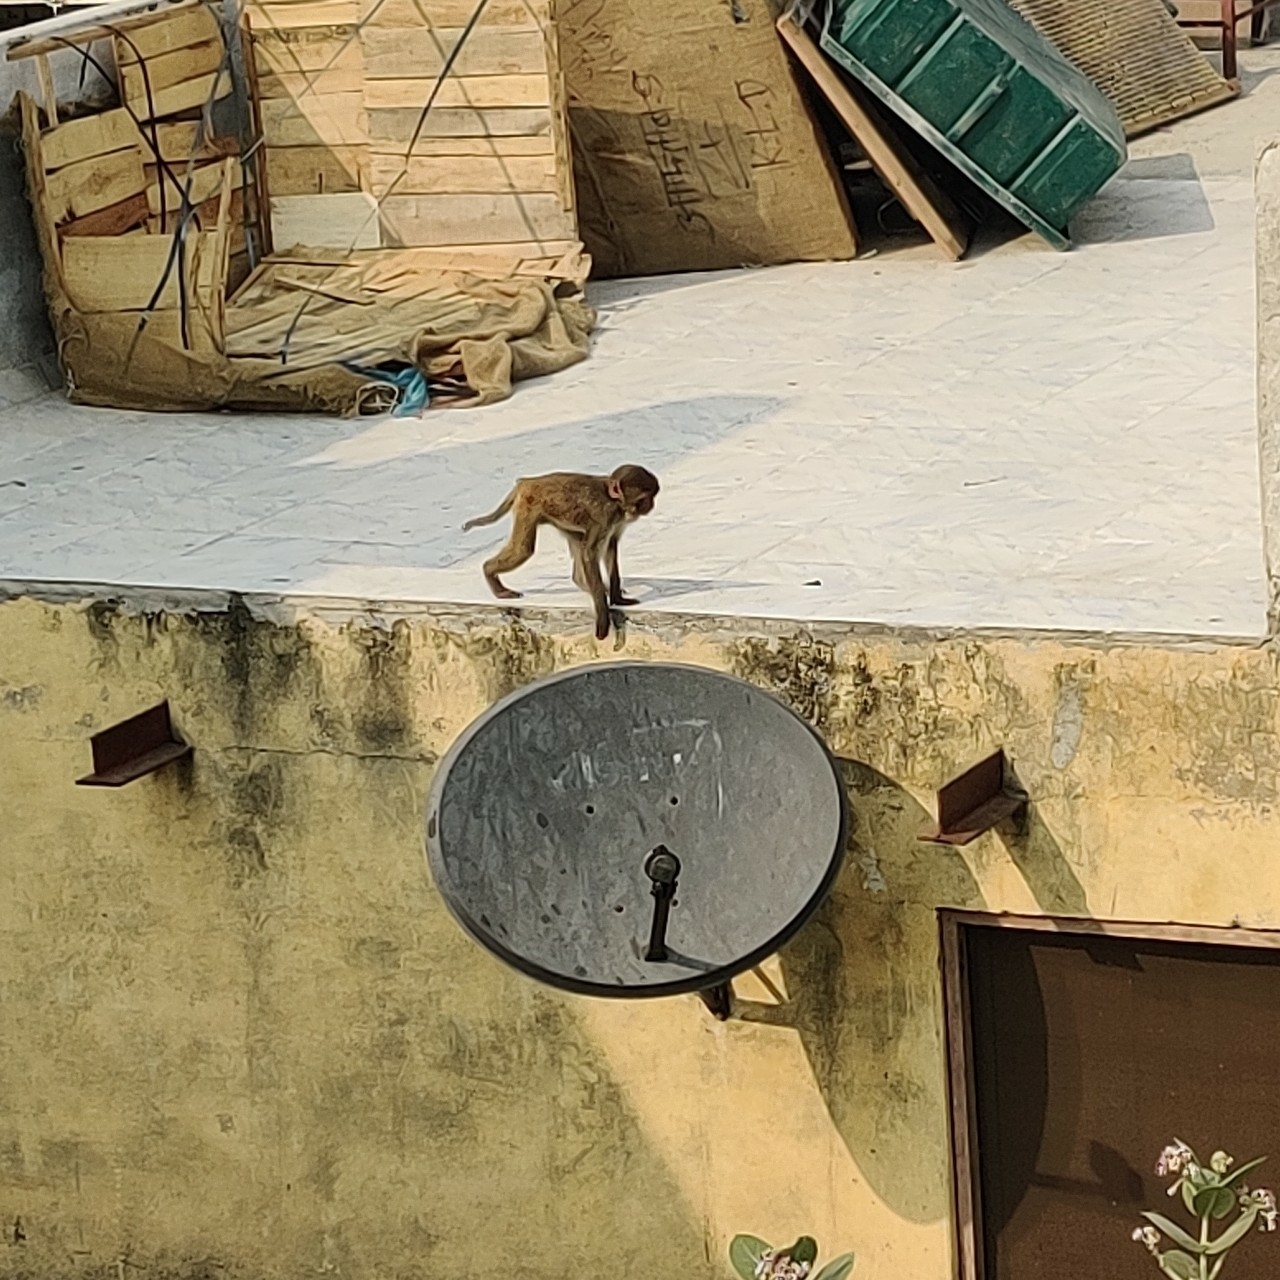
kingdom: Animalia
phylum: Chordata
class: Mammalia
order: Primates
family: Cercopithecidae
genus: Macaca
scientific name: Macaca mulatta
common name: Rhesus monkey
